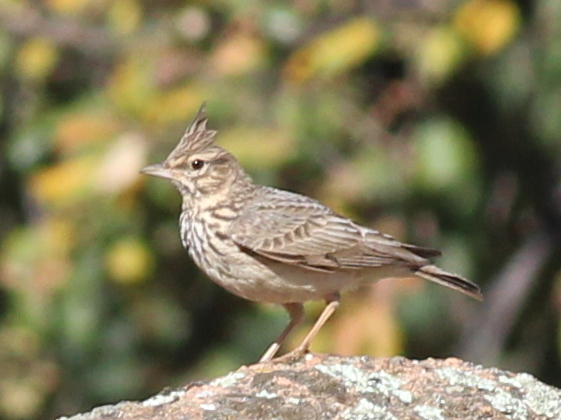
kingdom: Animalia
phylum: Chordata
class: Aves
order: Passeriformes
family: Alaudidae
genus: Galerida
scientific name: Galerida theklae
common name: Thekla lark
